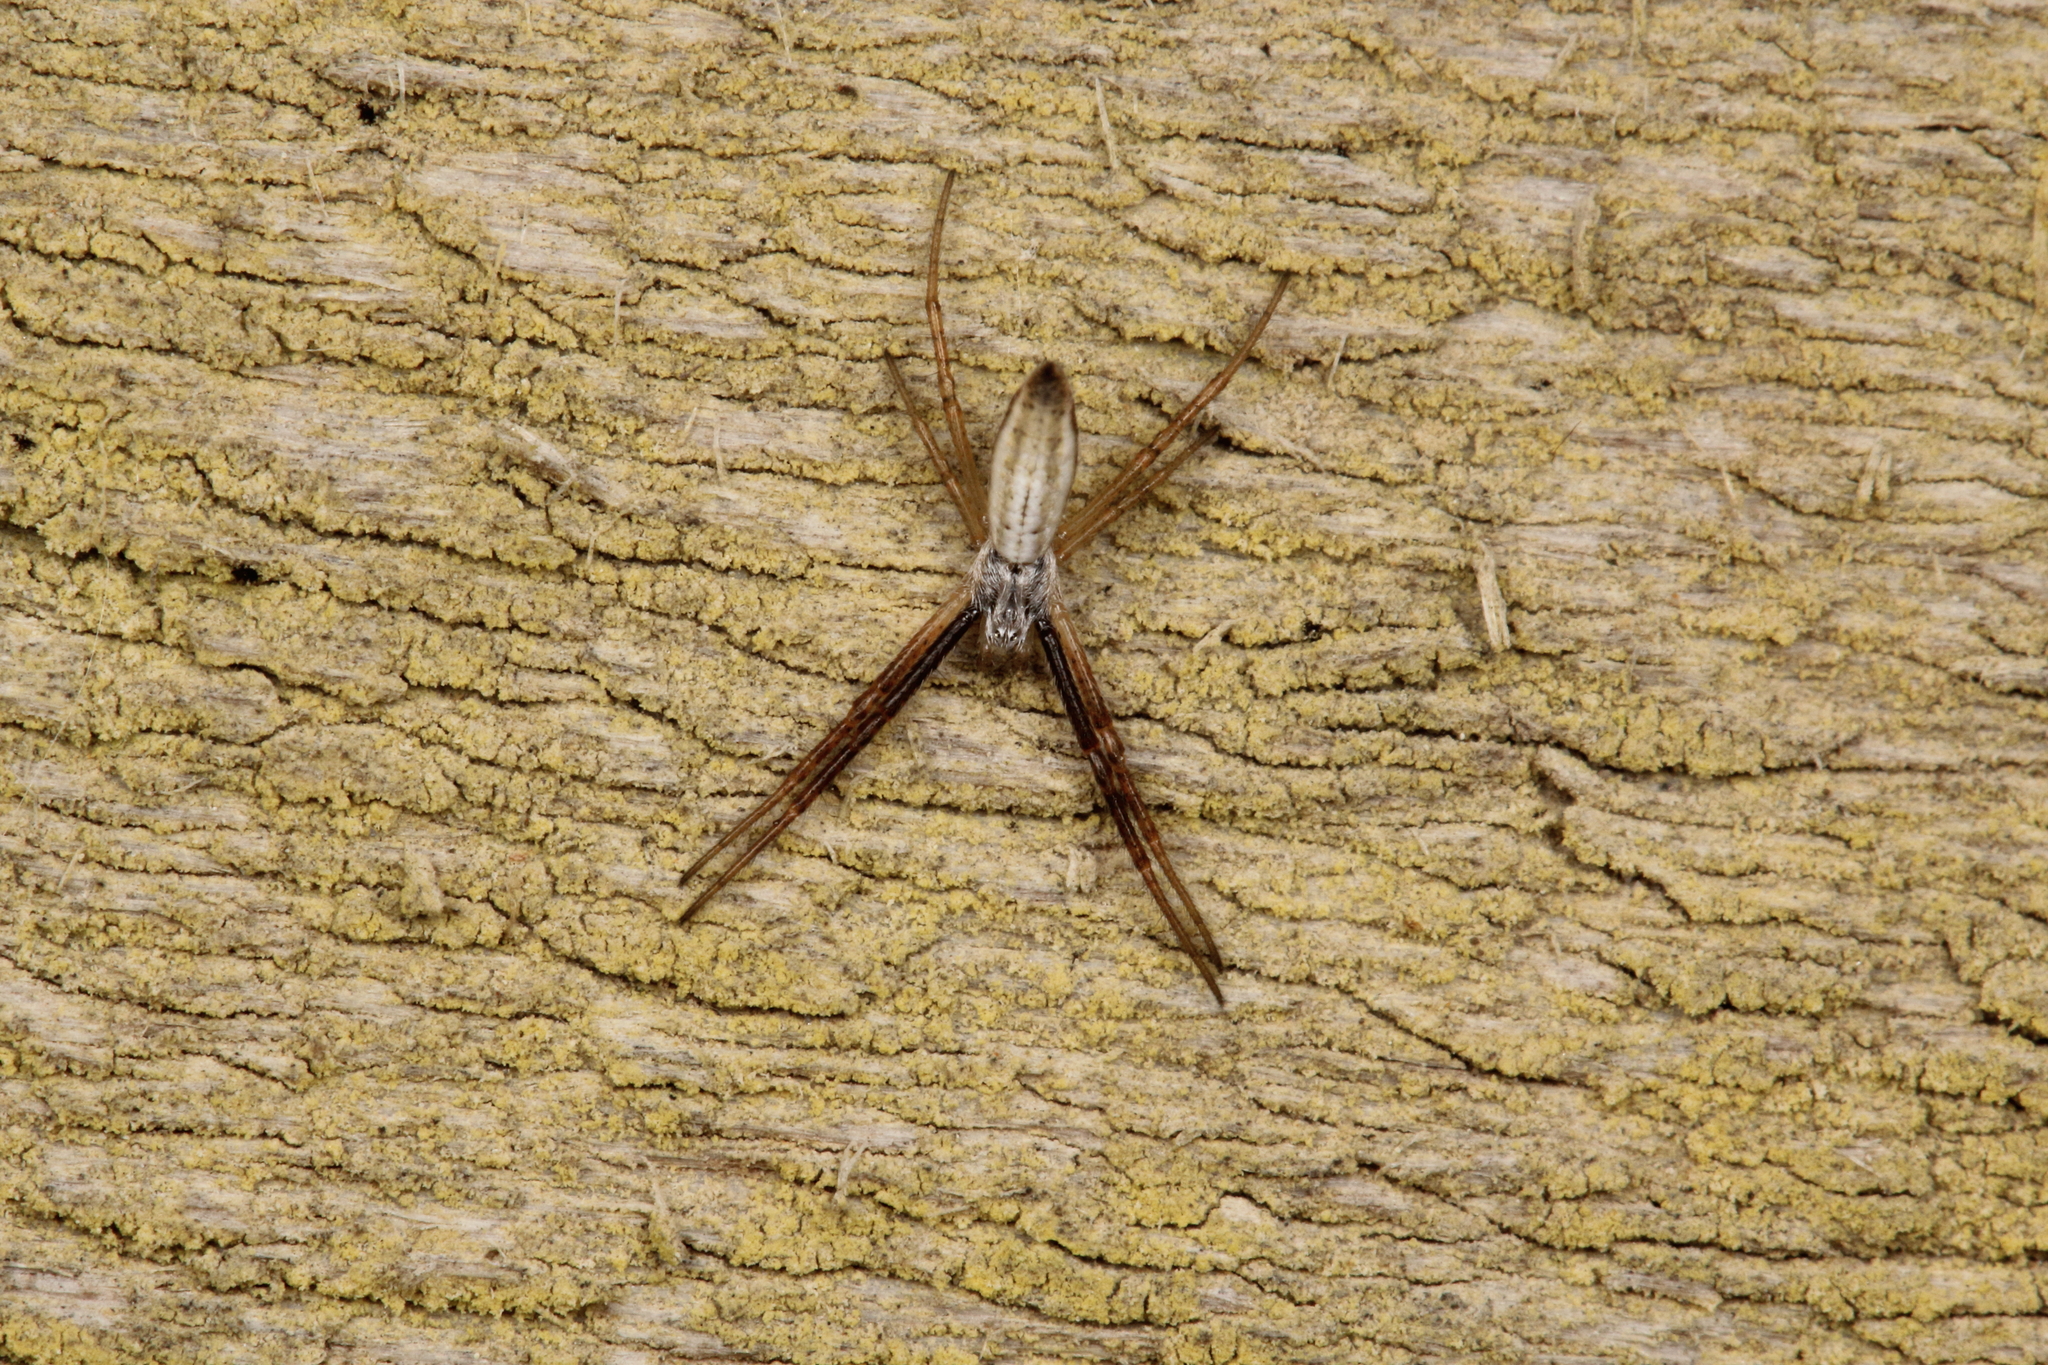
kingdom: Animalia
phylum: Arthropoda
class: Arachnida
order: Araneae
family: Araneidae
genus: Argiope
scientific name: Argiope protensa
